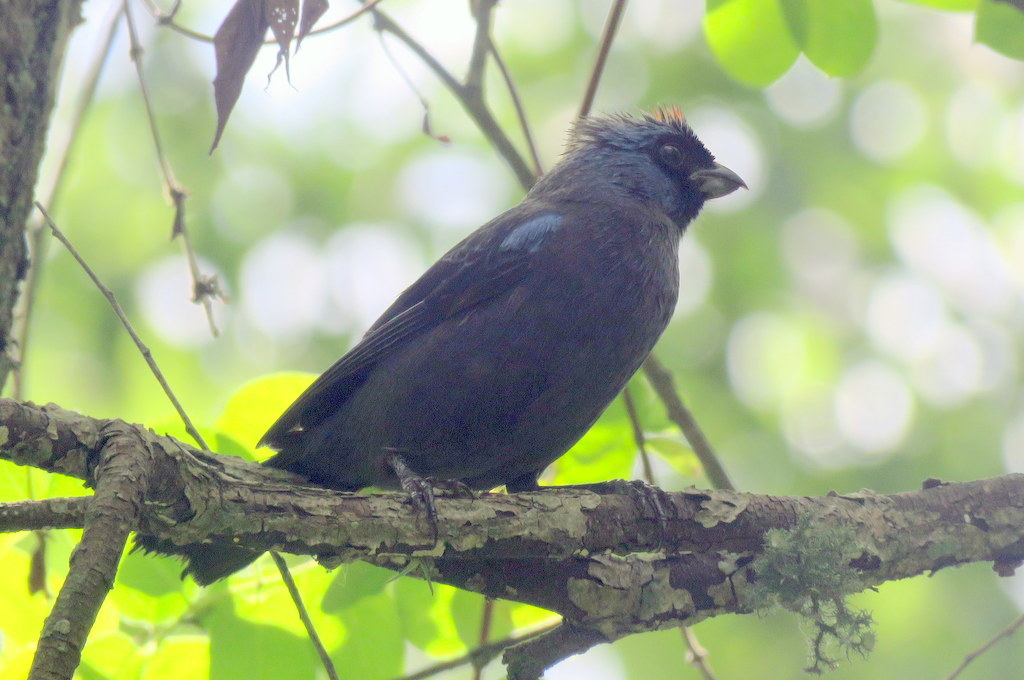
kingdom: Animalia
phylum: Chordata
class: Aves
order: Passeriformes
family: Thraupidae
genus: Stephanophorus
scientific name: Stephanophorus diadematus
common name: Diademed tanager
